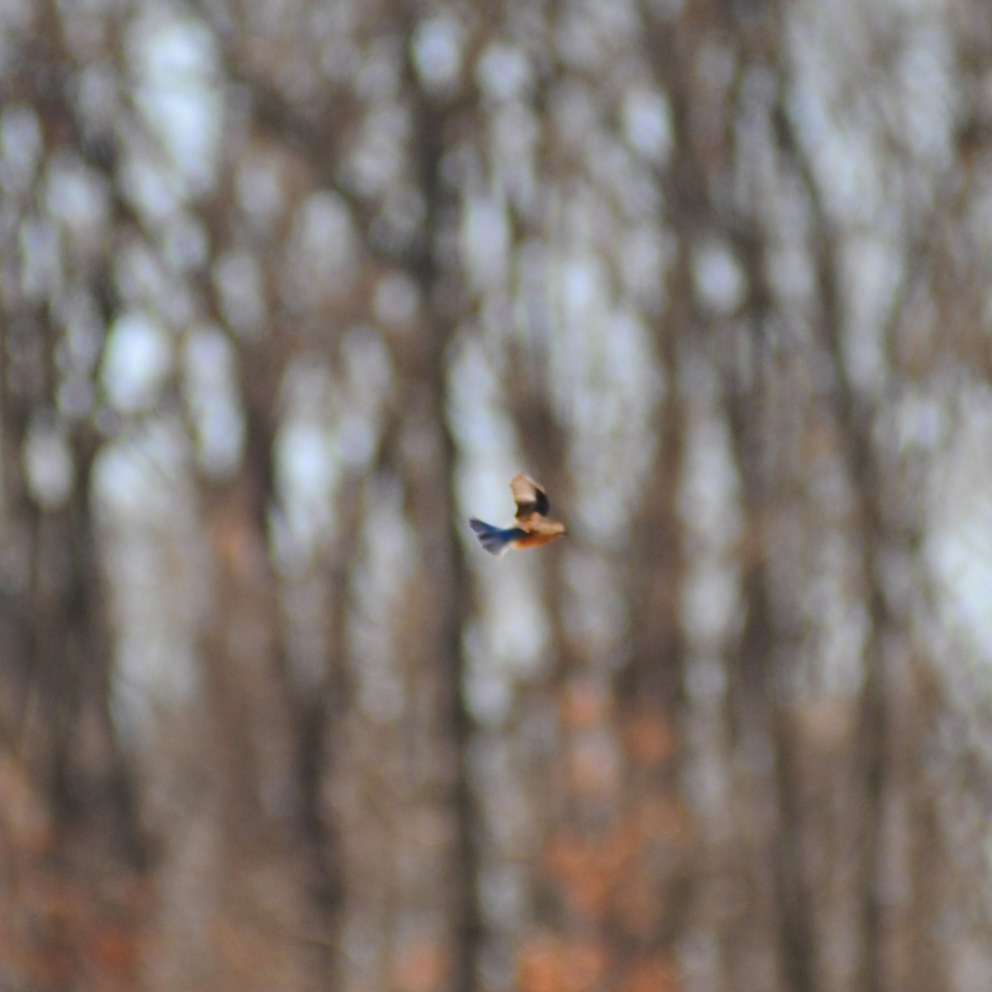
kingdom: Animalia
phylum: Chordata
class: Aves
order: Passeriformes
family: Turdidae
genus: Sialia
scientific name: Sialia sialis
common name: Eastern bluebird
